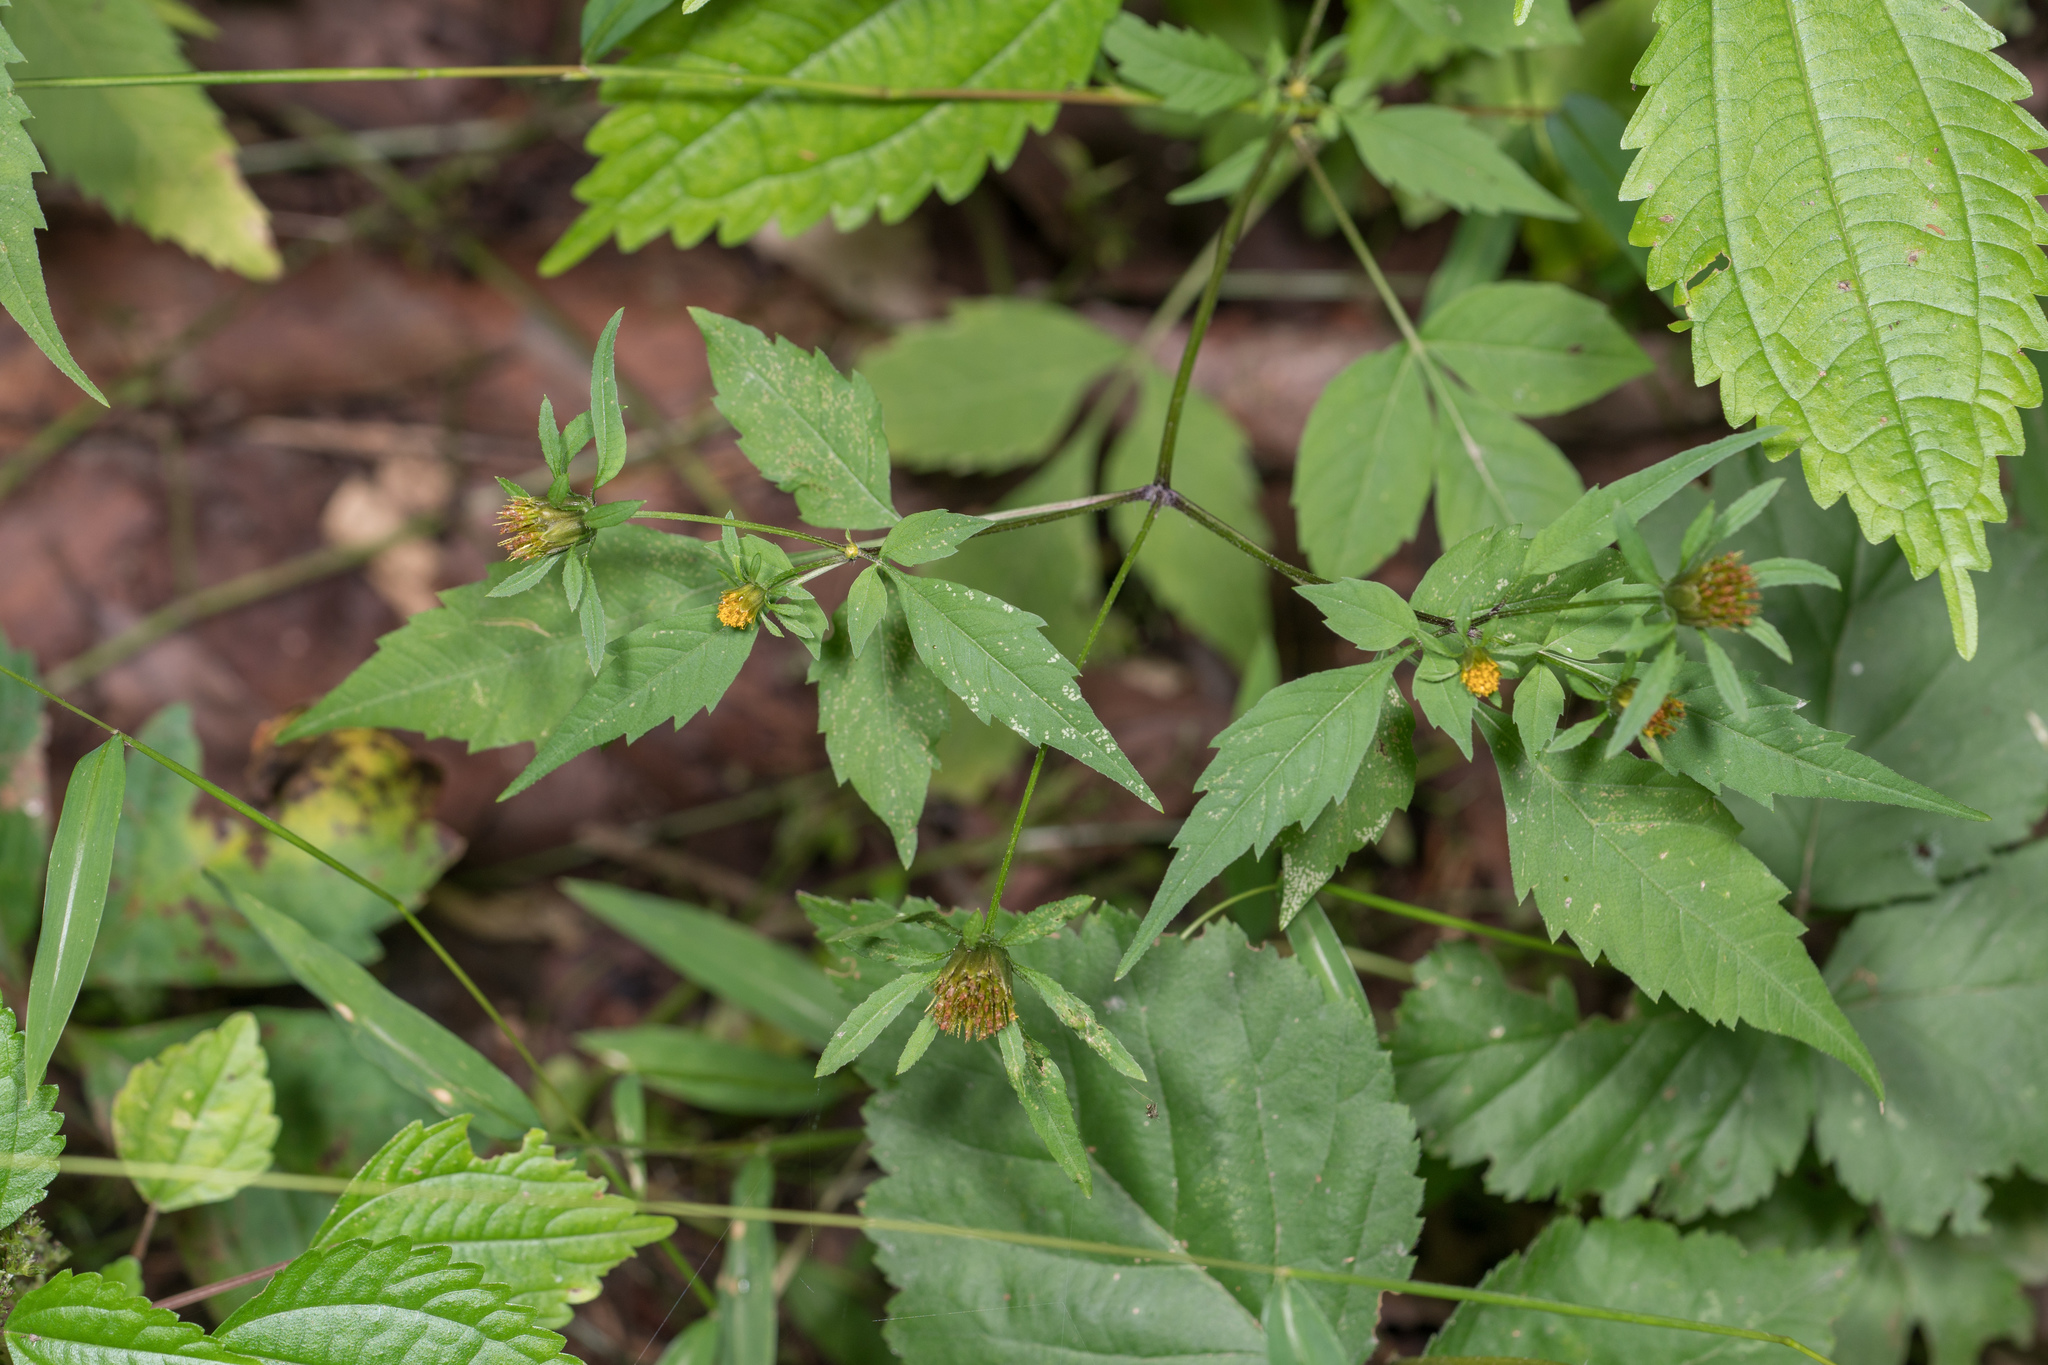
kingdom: Plantae
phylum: Tracheophyta
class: Magnoliopsida
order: Asterales
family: Asteraceae
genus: Bidens
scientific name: Bidens frondosa
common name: Beggarticks
